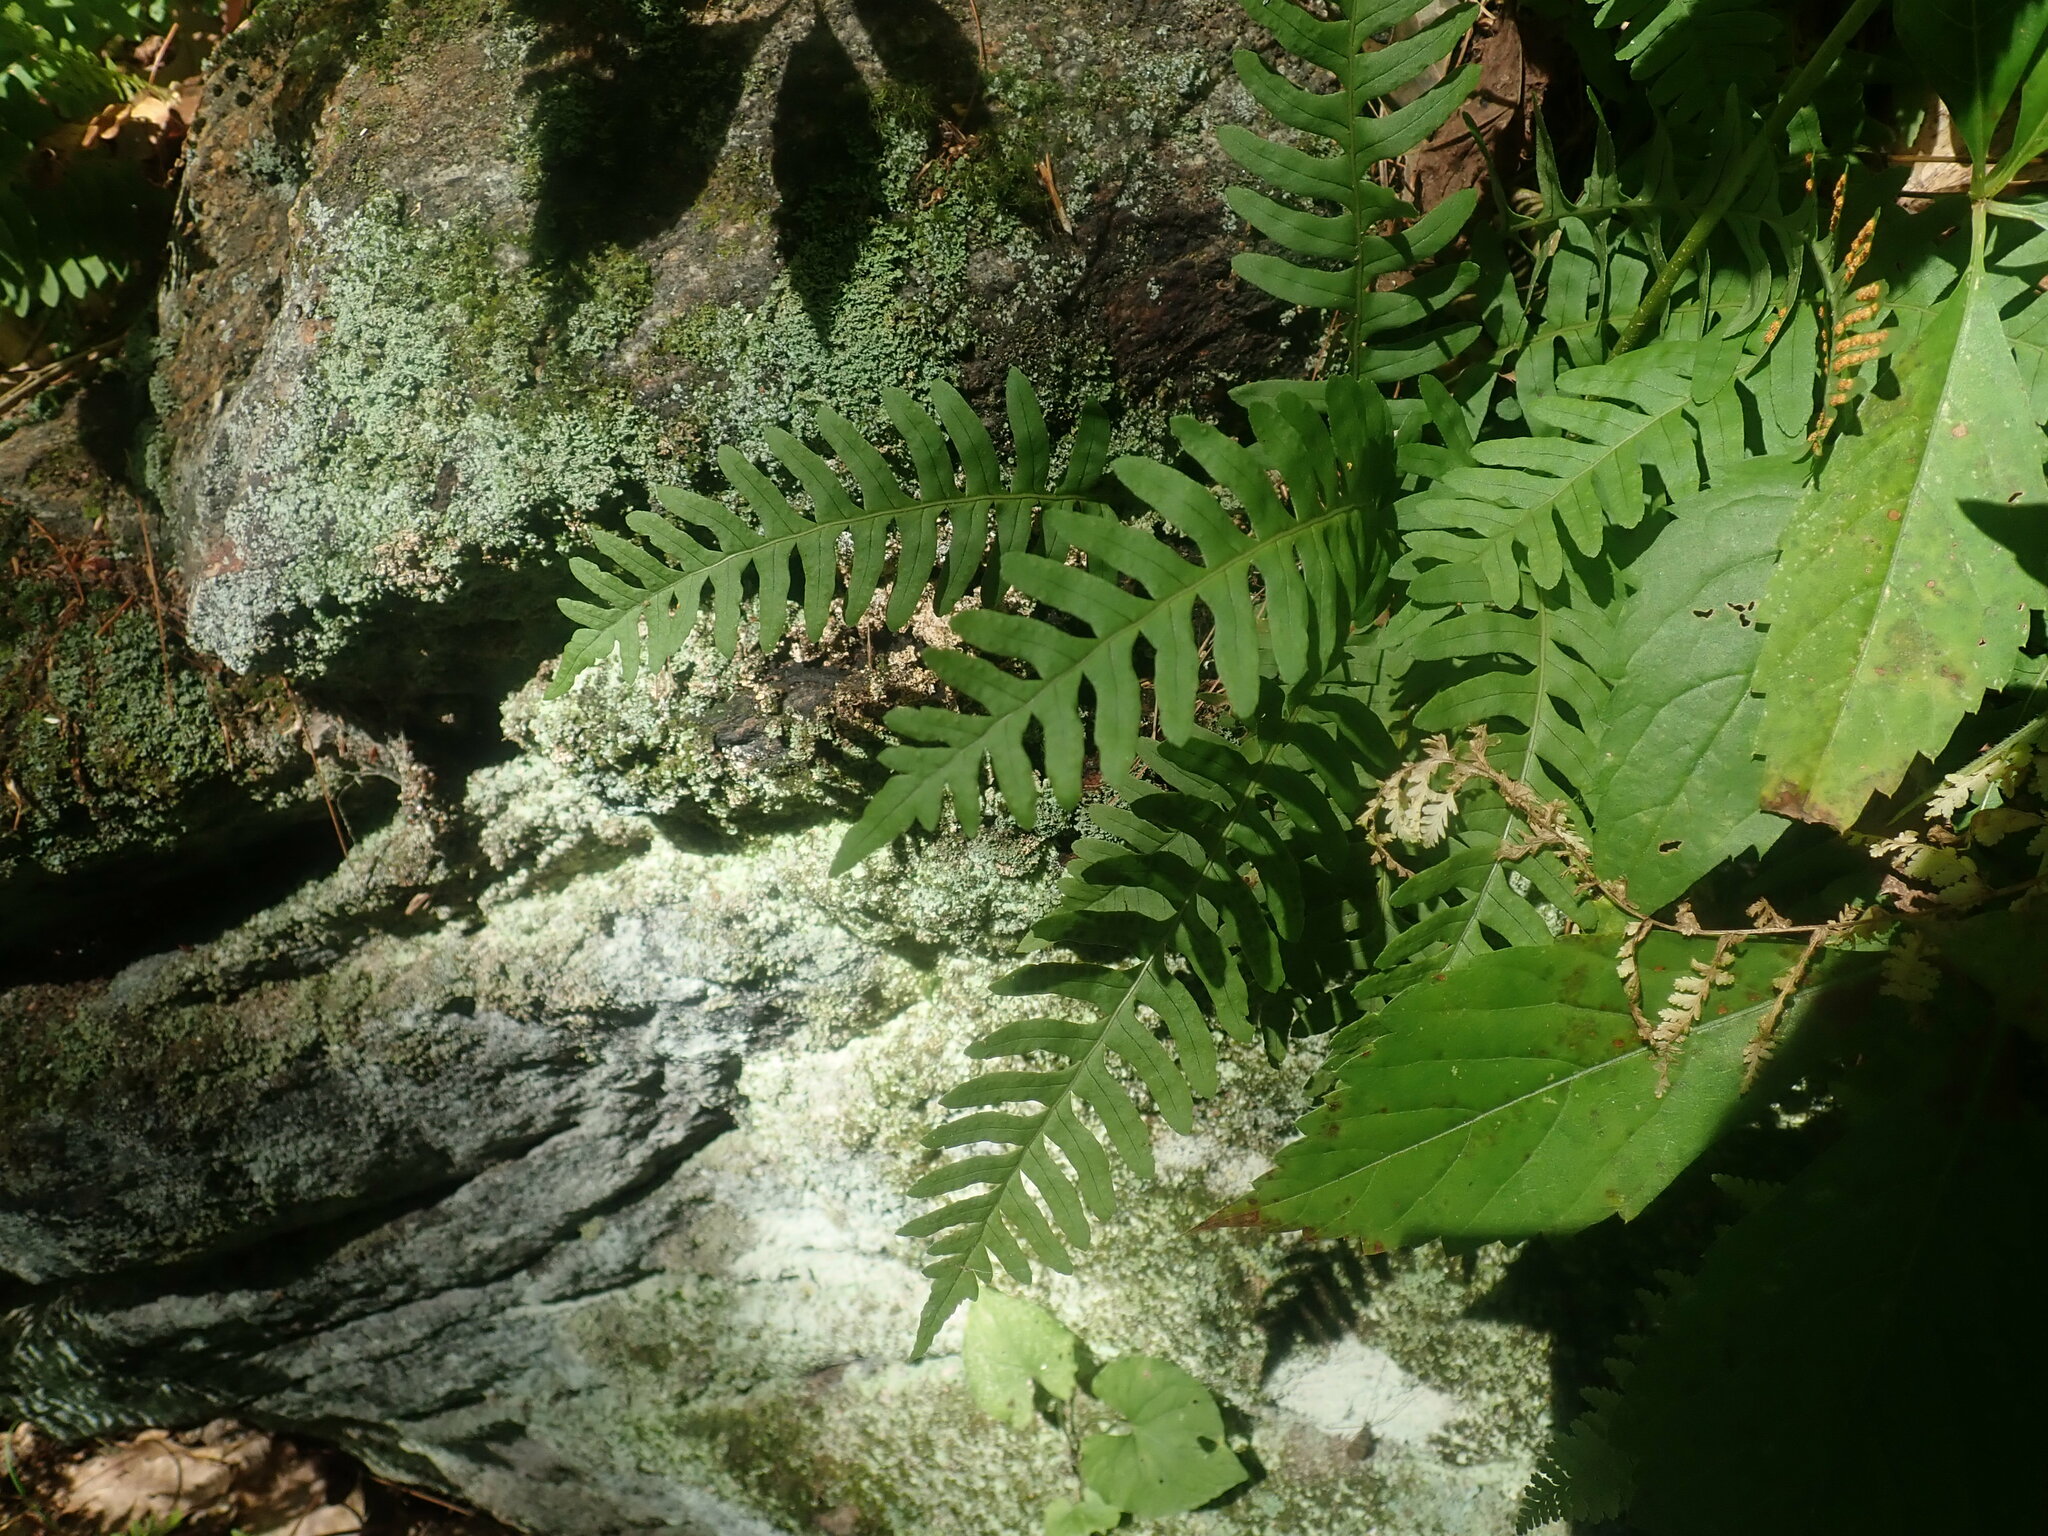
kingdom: Plantae
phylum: Tracheophyta
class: Polypodiopsida
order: Polypodiales
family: Polypodiaceae
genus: Polypodium
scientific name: Polypodium
